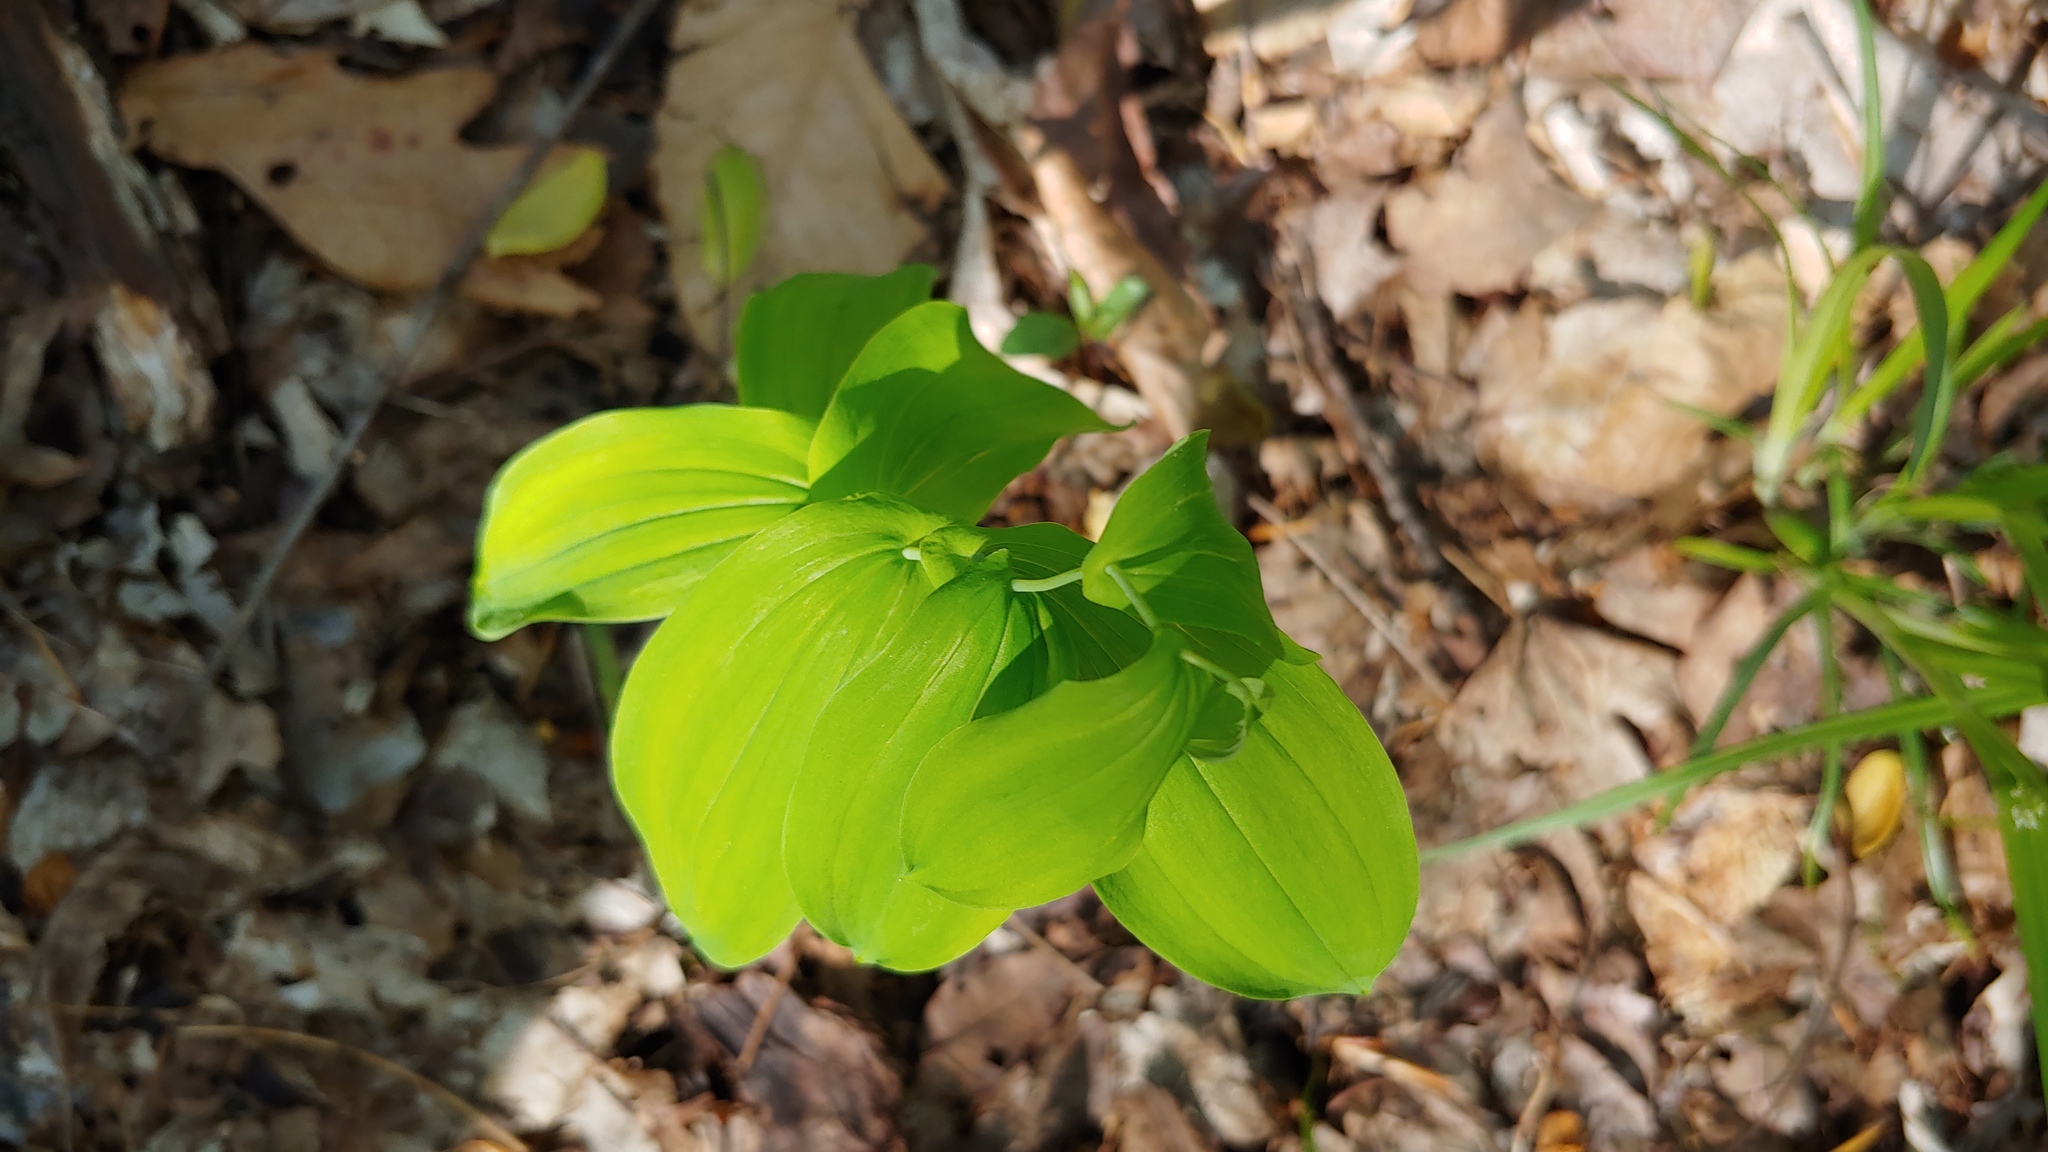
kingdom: Plantae
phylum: Tracheophyta
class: Liliopsida
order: Liliales
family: Colchicaceae
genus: Uvularia
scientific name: Uvularia grandiflora
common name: Bellwort
